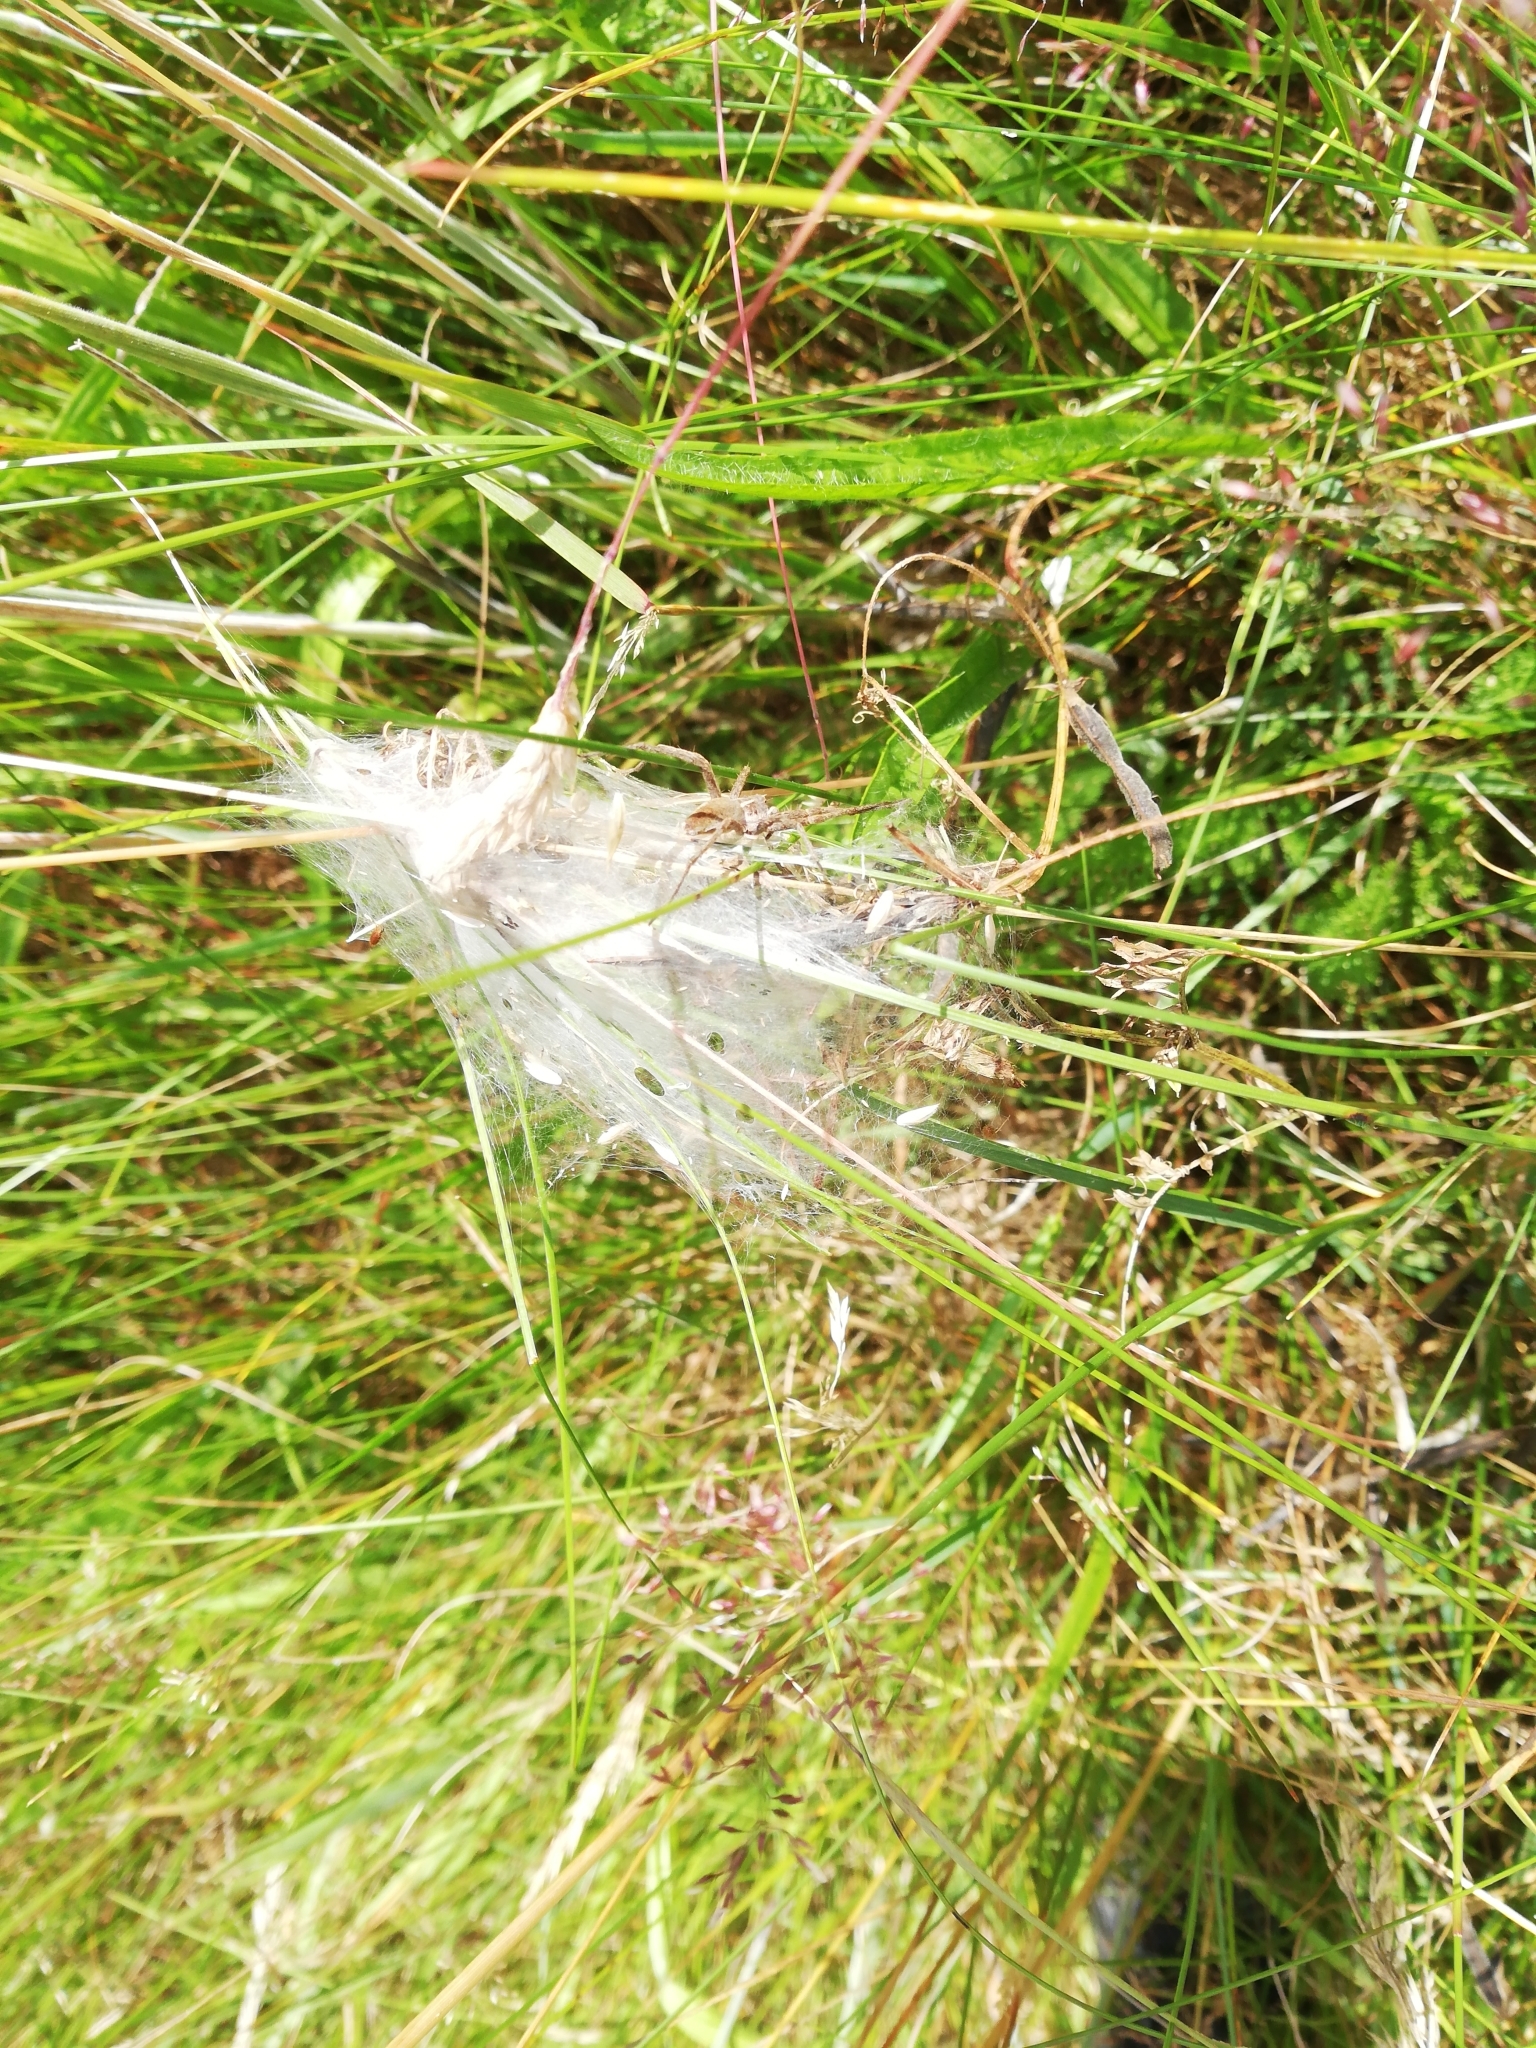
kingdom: Animalia
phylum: Arthropoda
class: Arachnida
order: Araneae
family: Pisauridae
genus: Pisaura
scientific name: Pisaura mirabilis
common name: Tent spider
